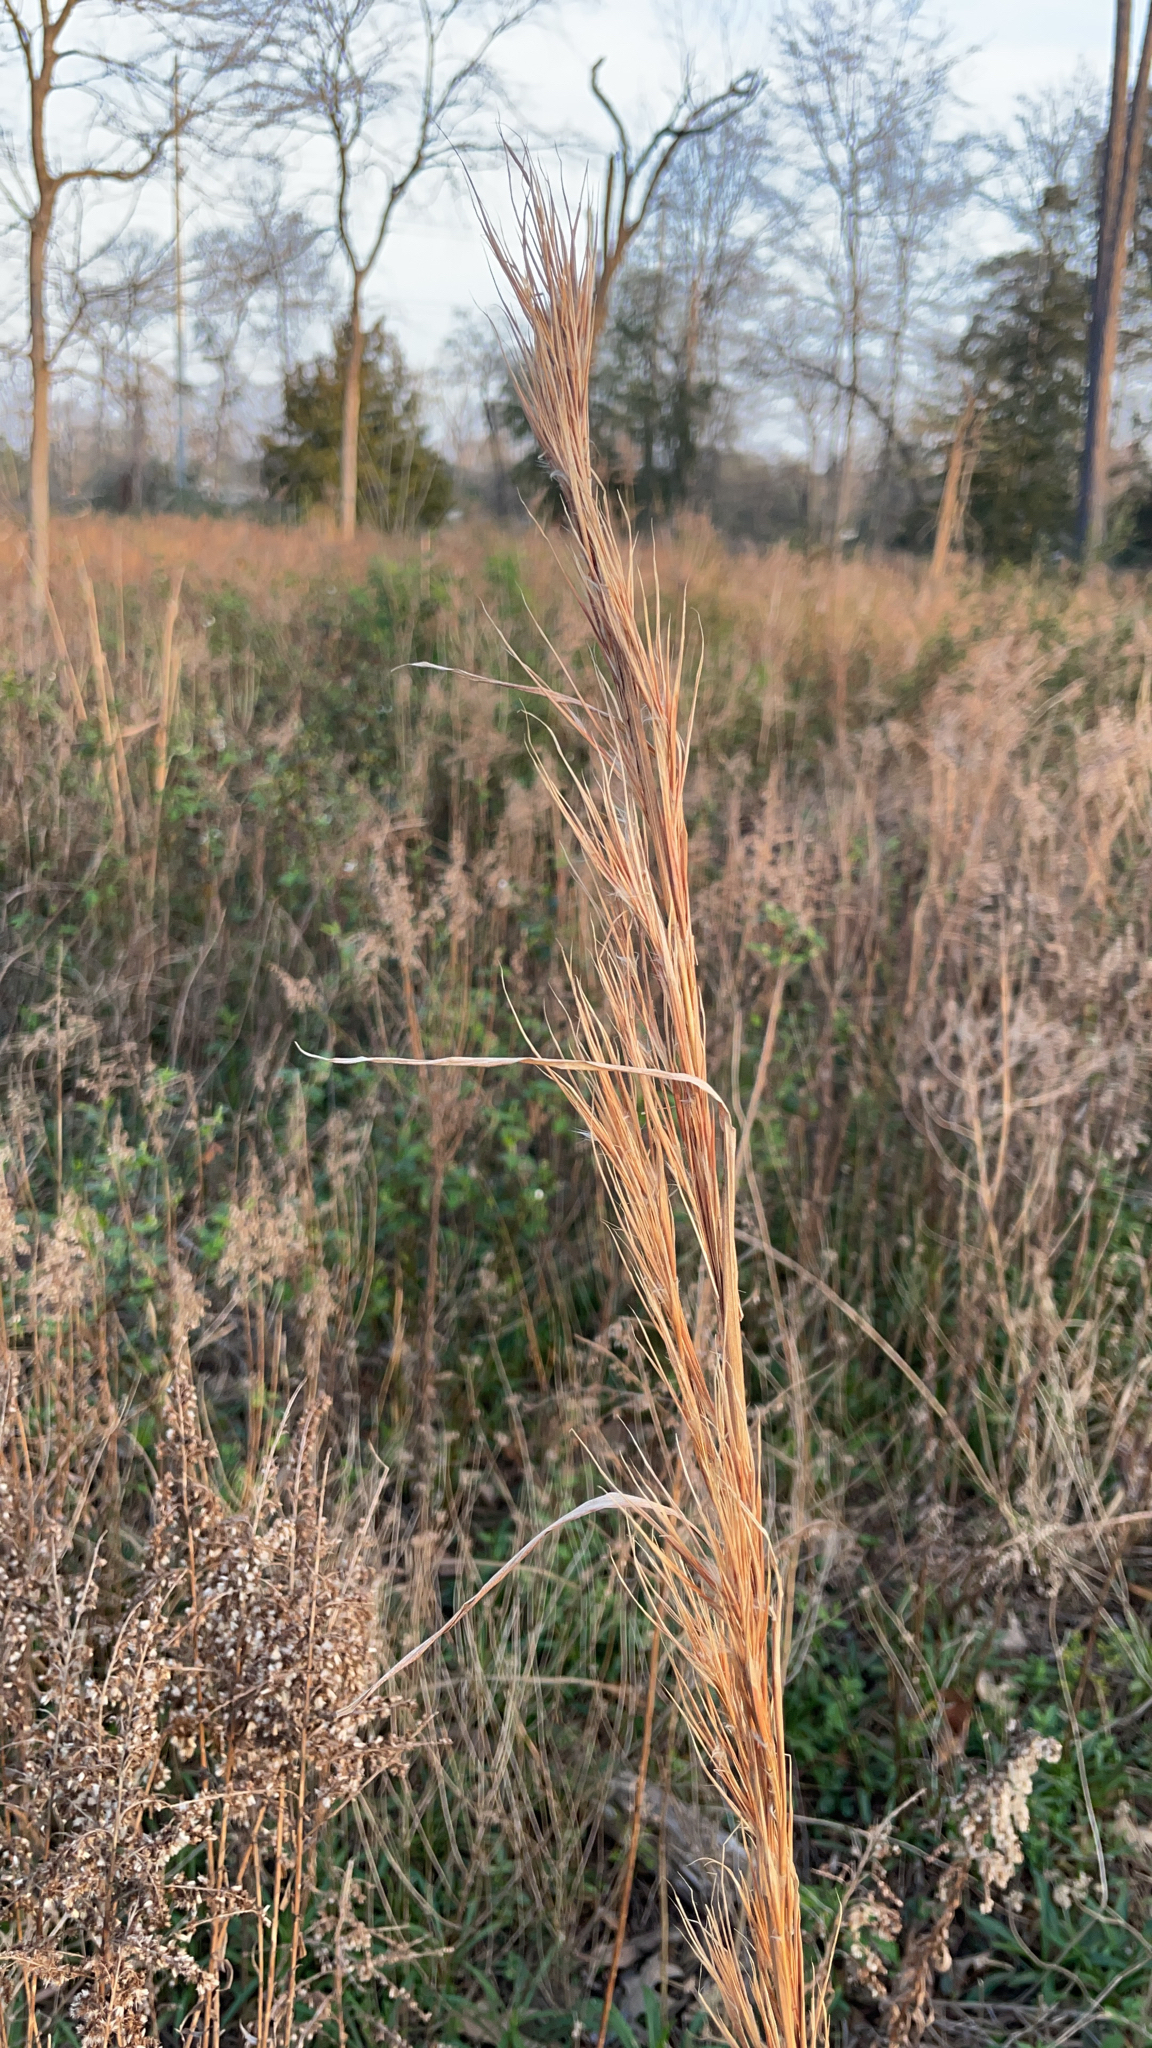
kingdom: Plantae
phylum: Tracheophyta
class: Liliopsida
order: Poales
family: Poaceae
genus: Andropogon
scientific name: Andropogon tenuispatheus
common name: Bushy bluestem
